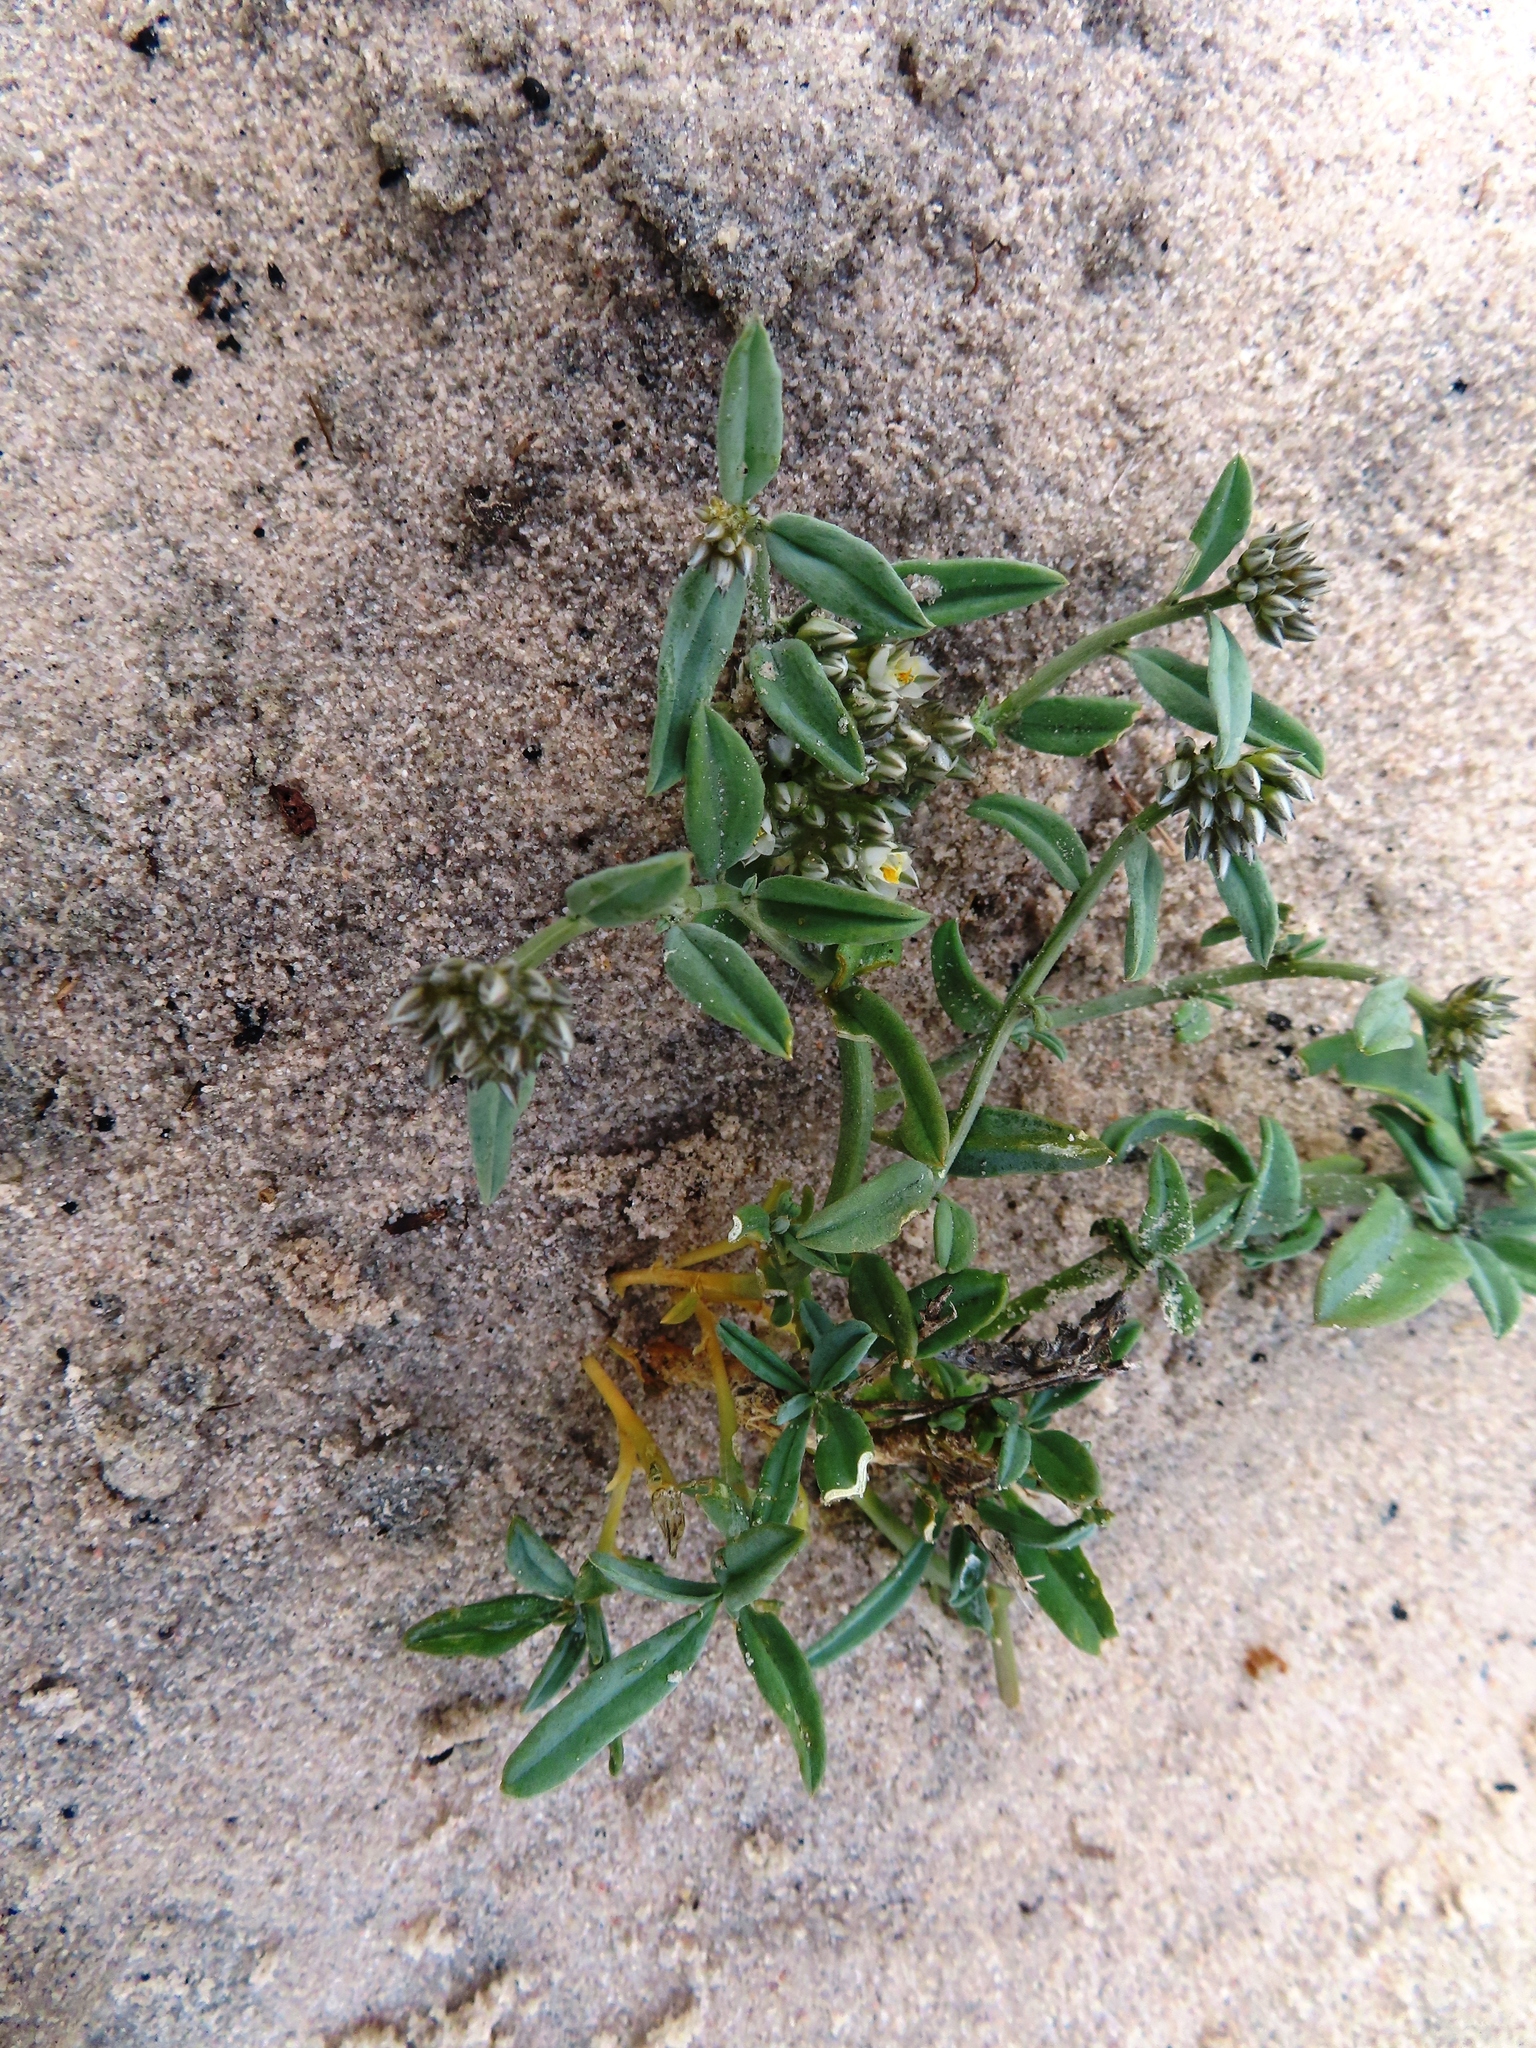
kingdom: Plantae
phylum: Tracheophyta
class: Magnoliopsida
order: Caryophyllales
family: Limeaceae
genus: Limeum
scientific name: Limeum africanum
